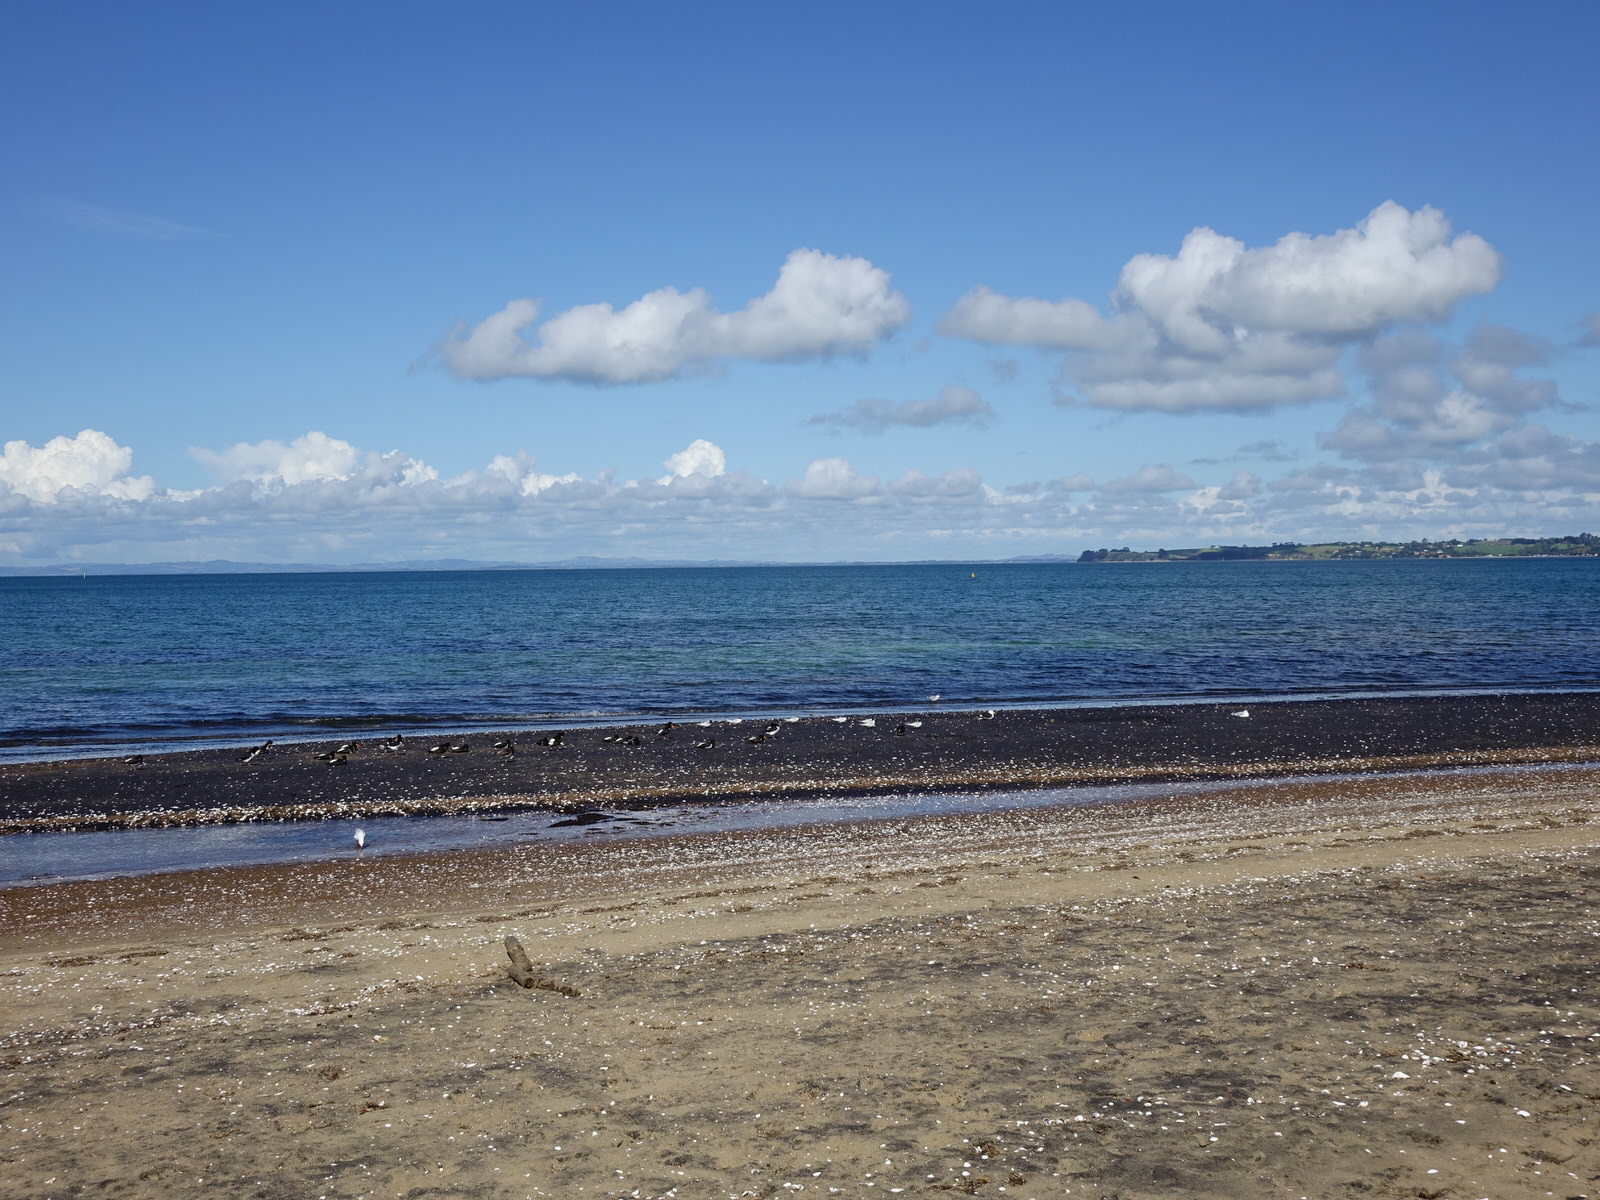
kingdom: Animalia
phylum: Chordata
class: Aves
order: Charadriiformes
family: Laridae
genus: Sterna
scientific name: Sterna striata
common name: White-fronted tern
